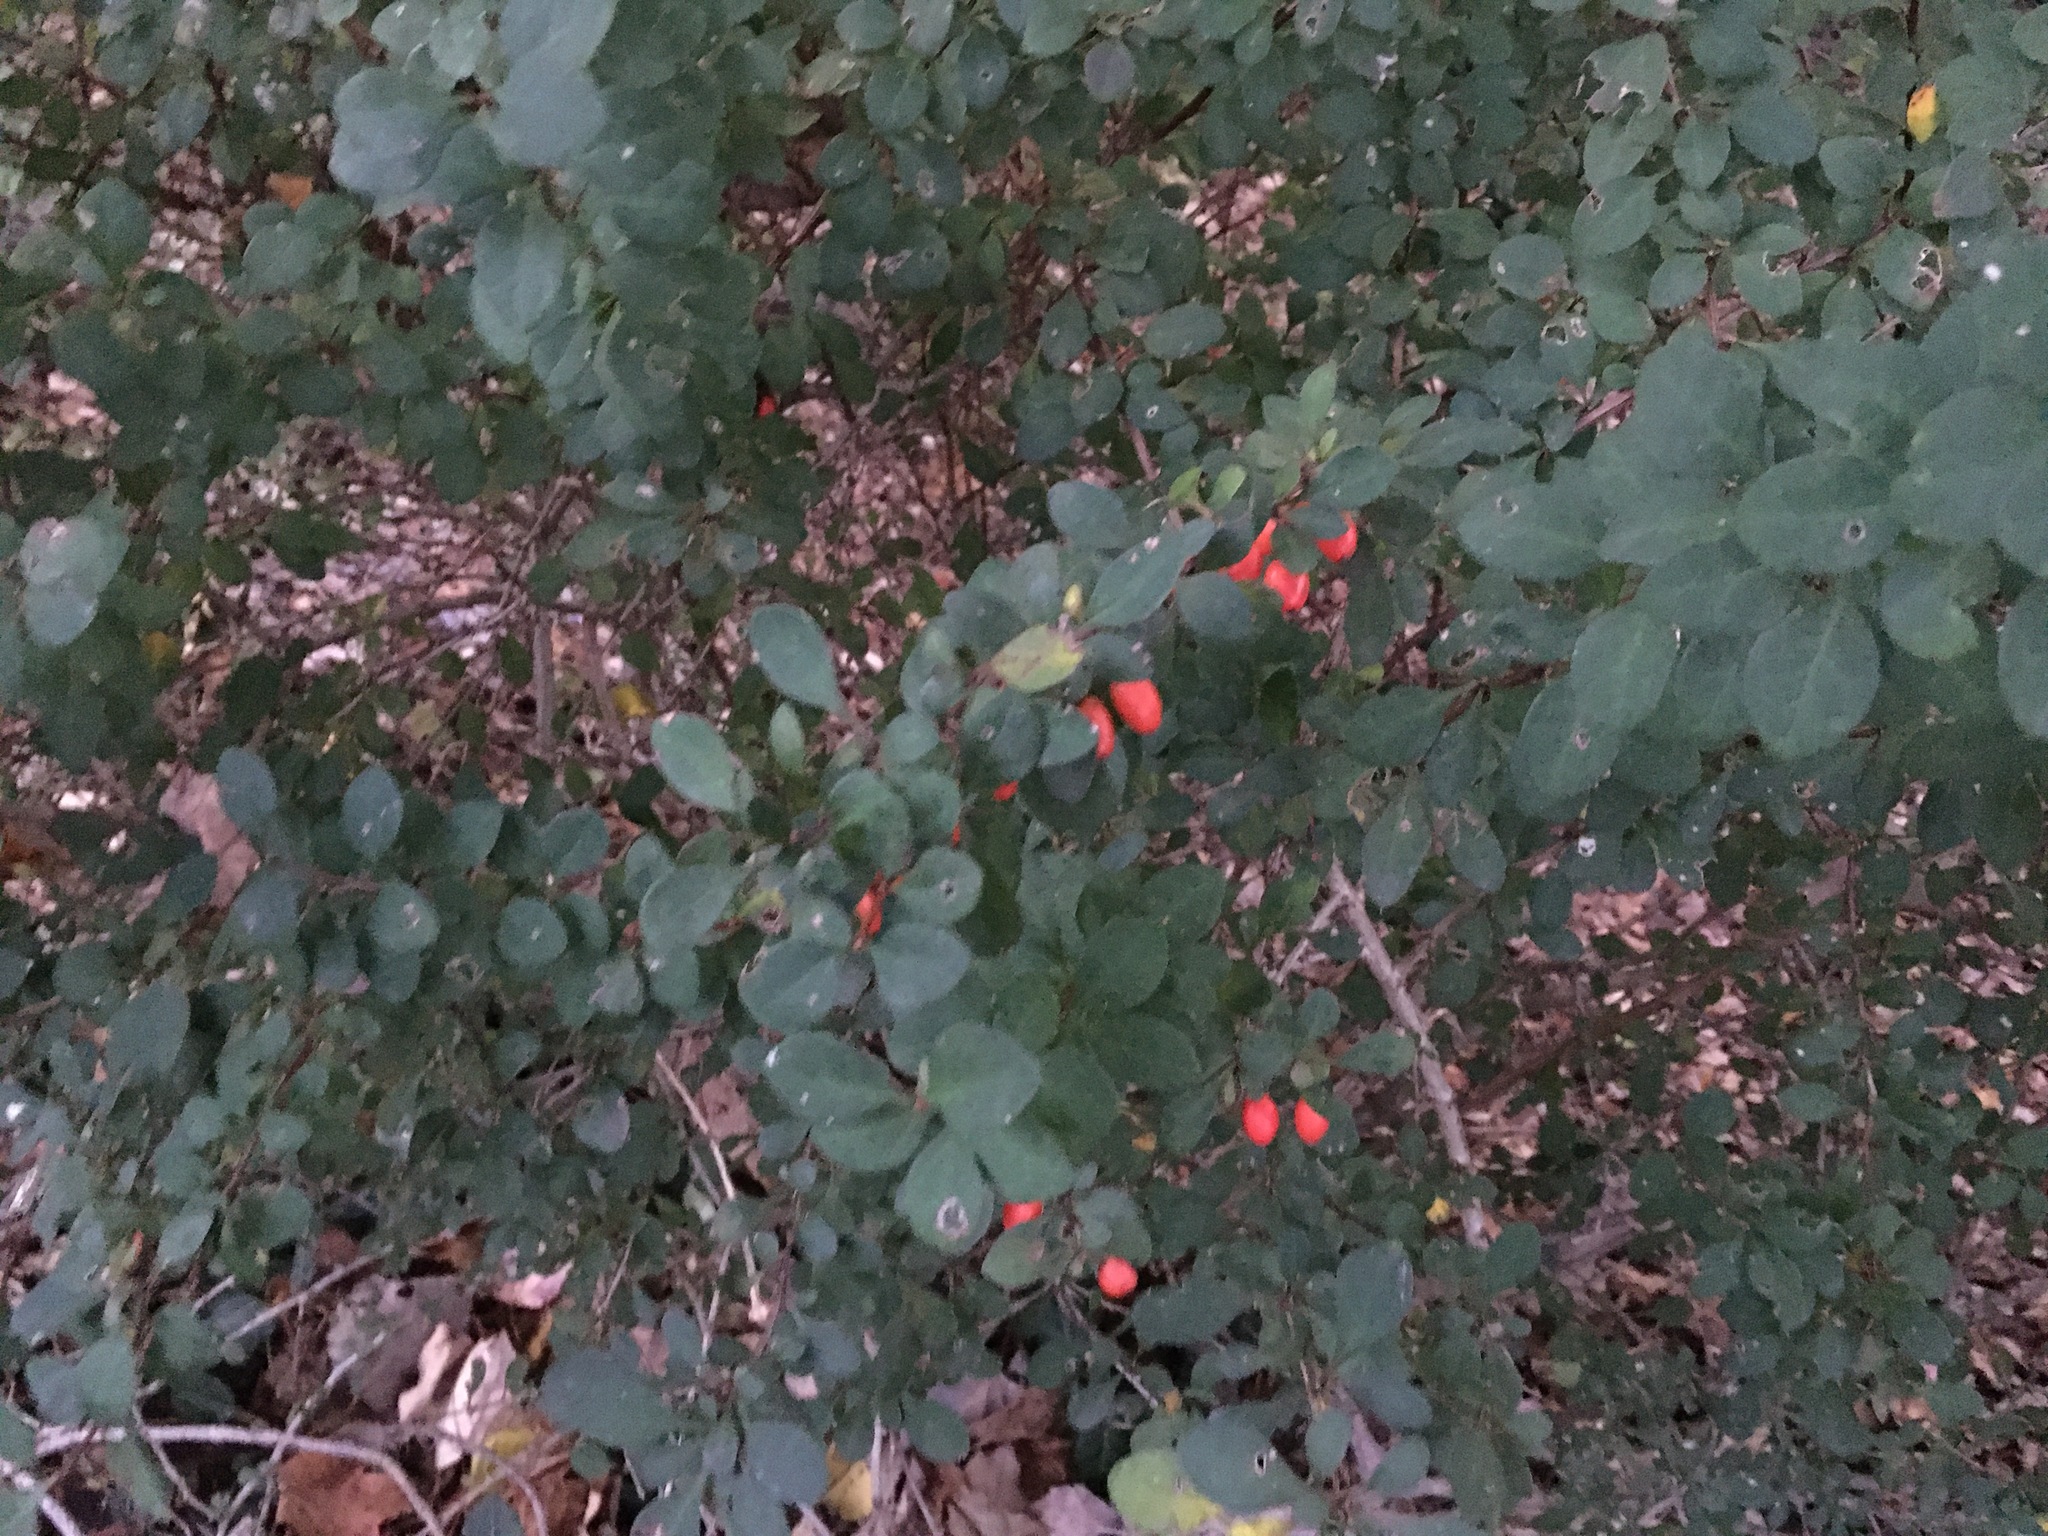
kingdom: Plantae
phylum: Tracheophyta
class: Magnoliopsida
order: Ranunculales
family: Berberidaceae
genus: Berberis
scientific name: Berberis thunbergii
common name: Japanese barberry
